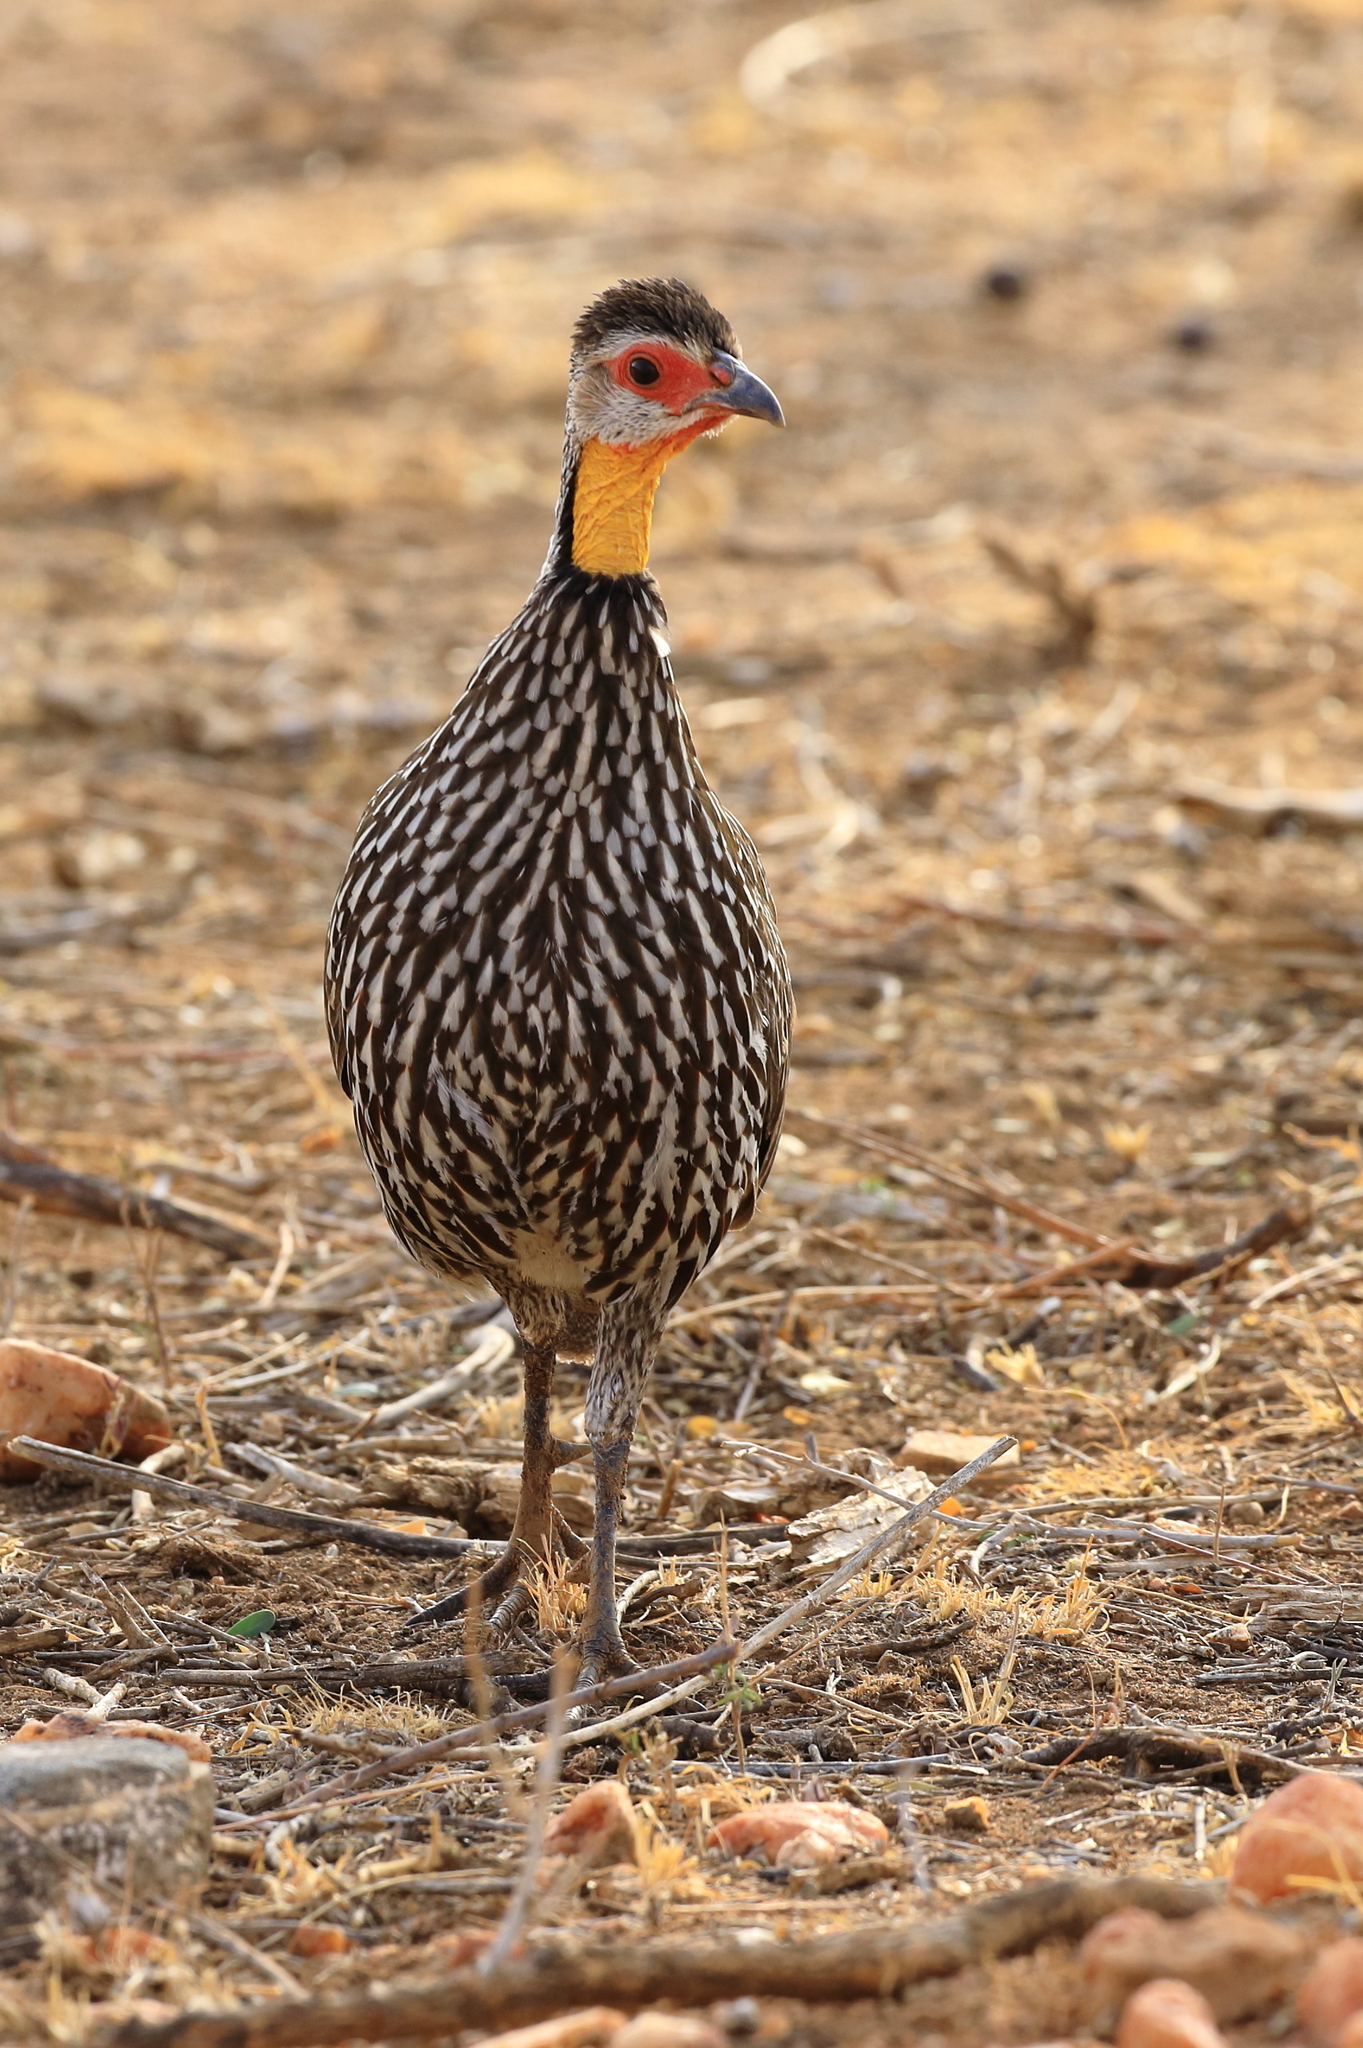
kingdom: Animalia
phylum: Chordata
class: Aves
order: Galliformes
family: Phasianidae
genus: Pternistis
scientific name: Pternistis leucoscepus
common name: Yellow-necked spurfowl
